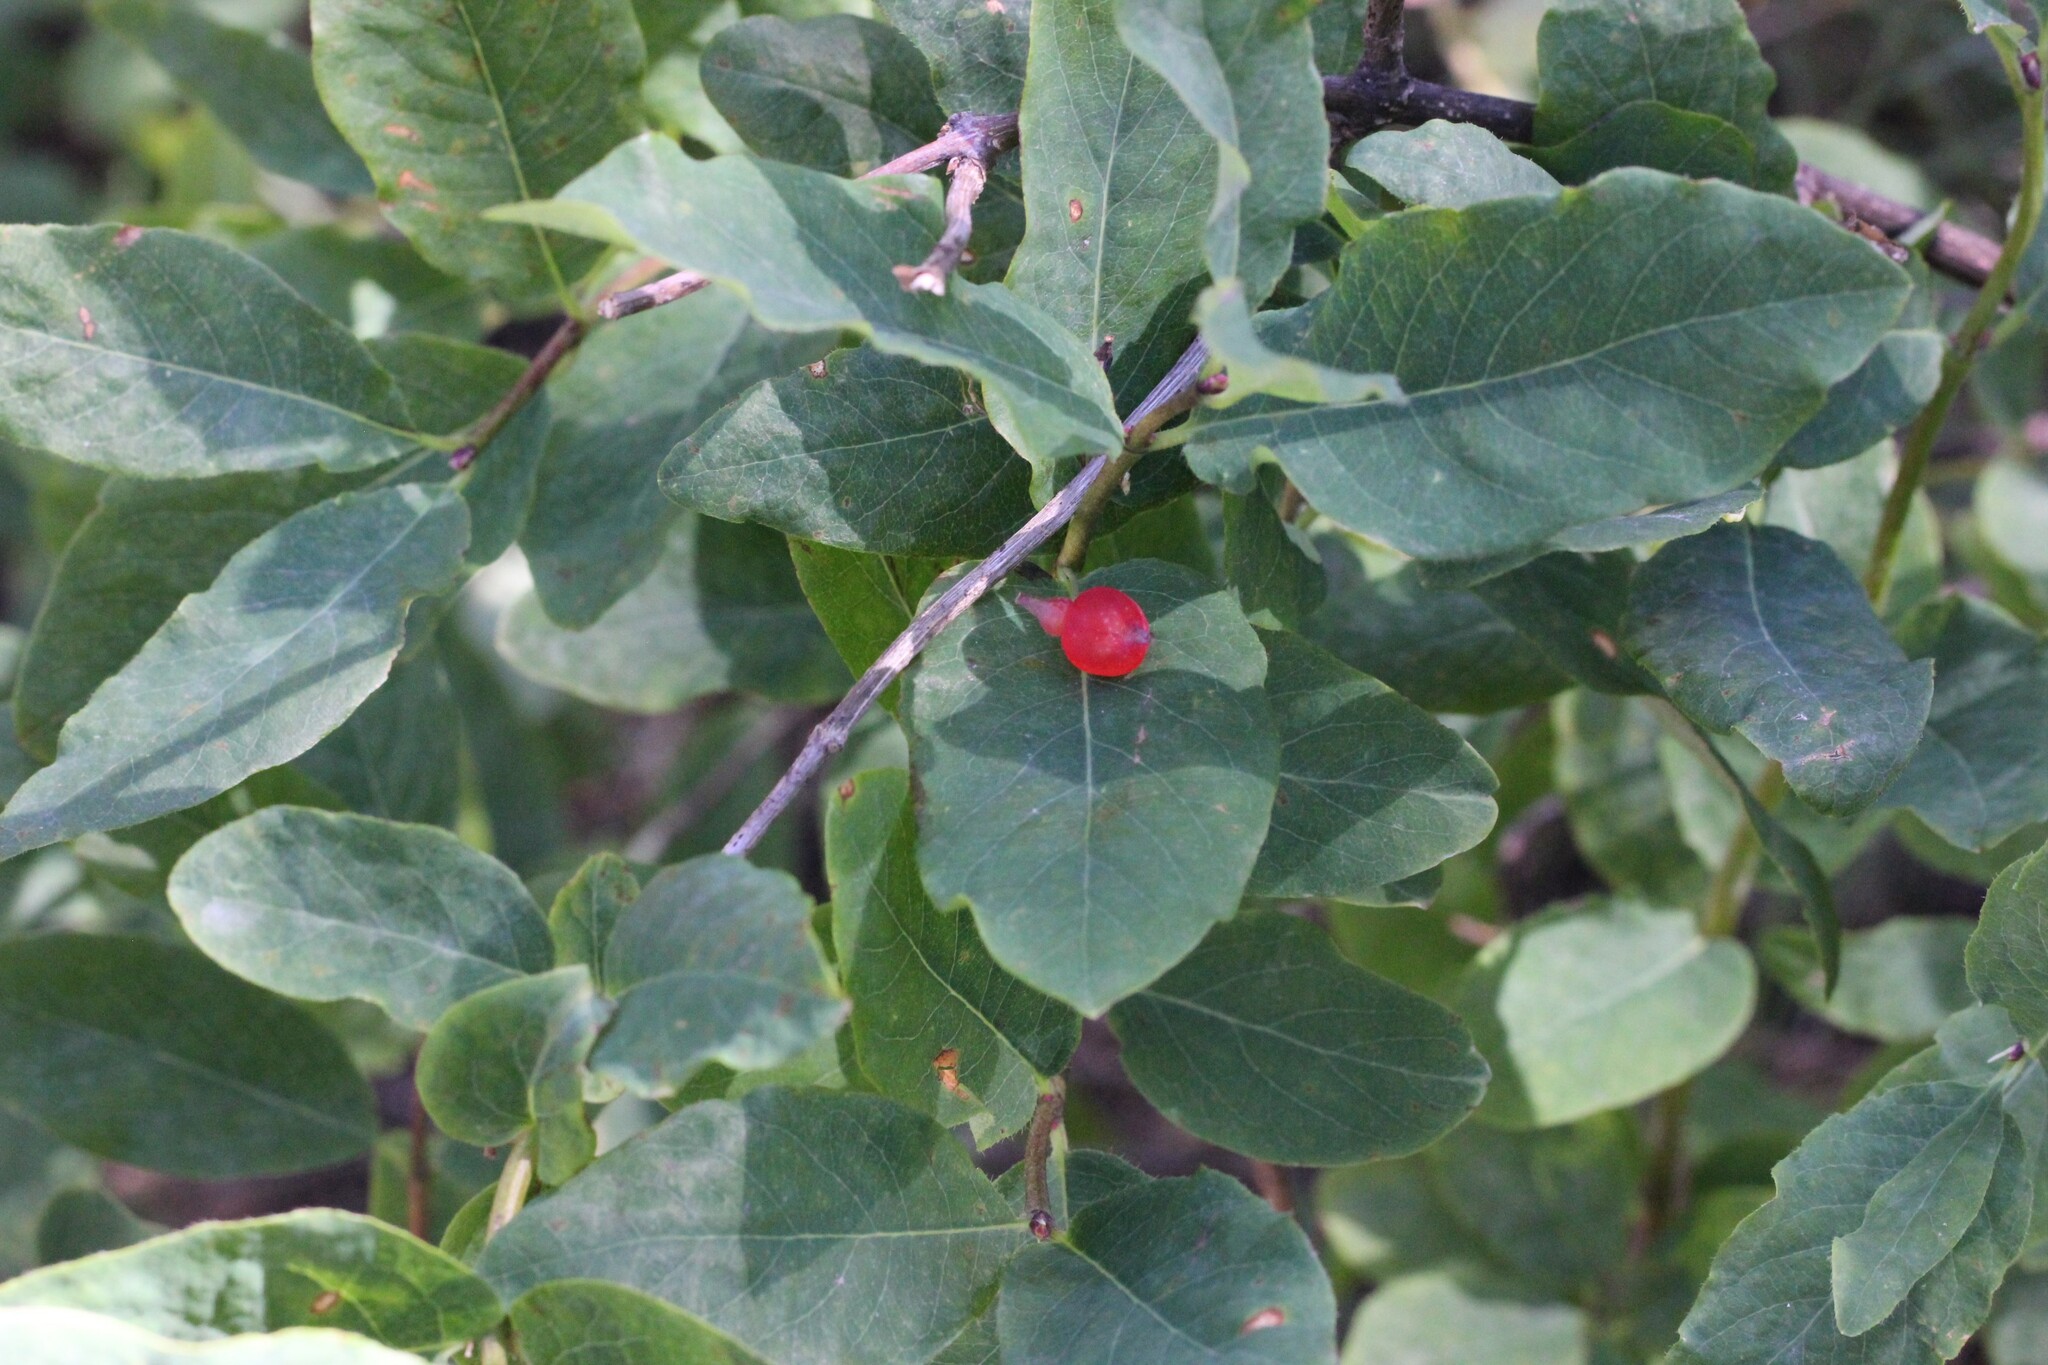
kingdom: Plantae
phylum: Tracheophyta
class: Magnoliopsida
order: Dipsacales
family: Caprifoliaceae
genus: Lonicera
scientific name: Lonicera utahensis
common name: Utah honeysuckle
